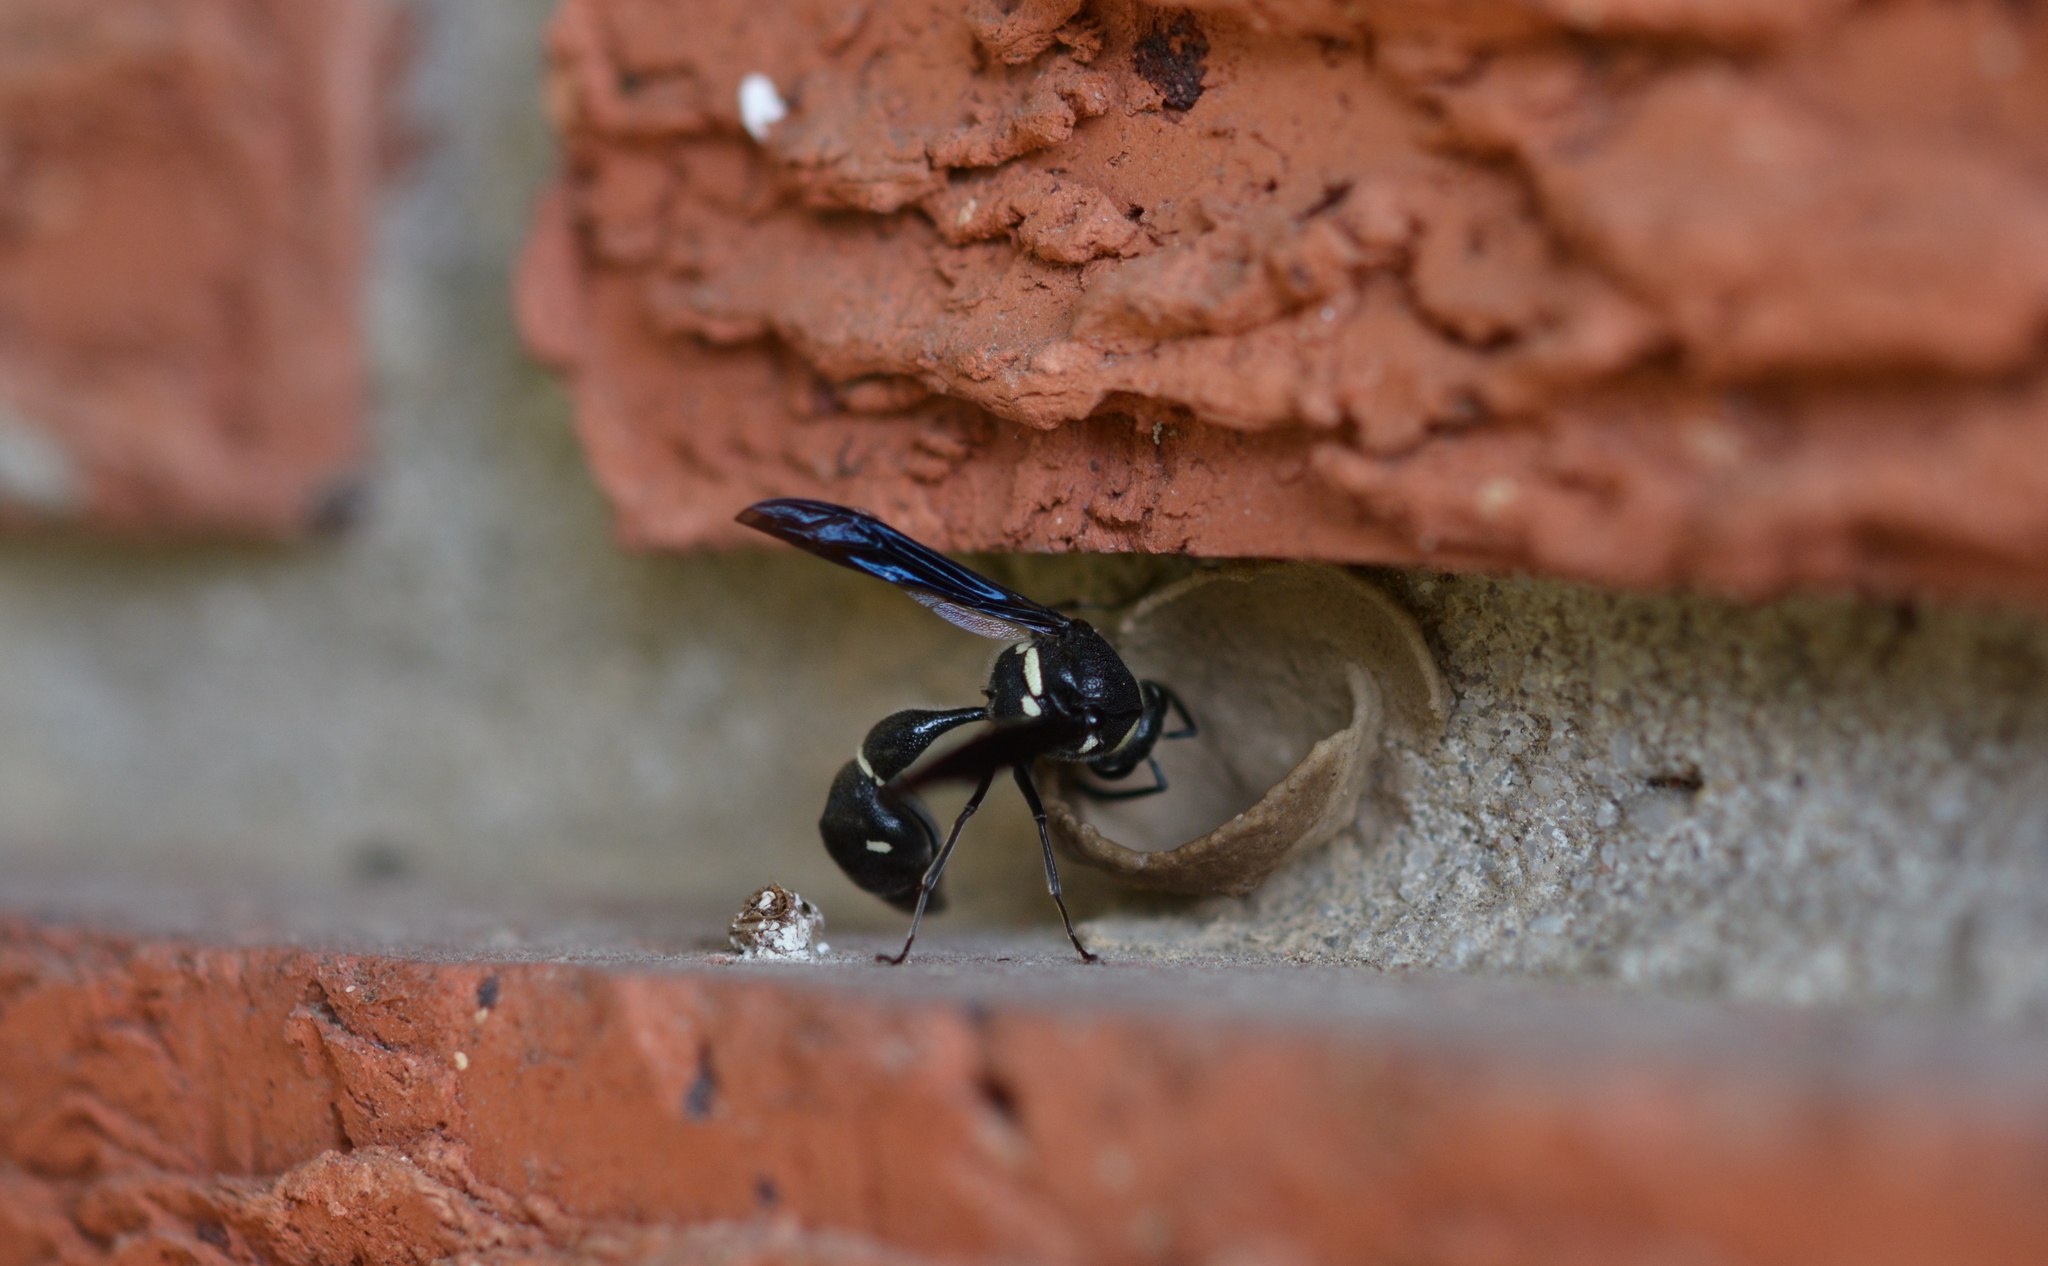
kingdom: Animalia
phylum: Arthropoda
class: Insecta
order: Hymenoptera
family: Vespidae
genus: Eumenes
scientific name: Eumenes fraternus
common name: Fraternal potter wasp
